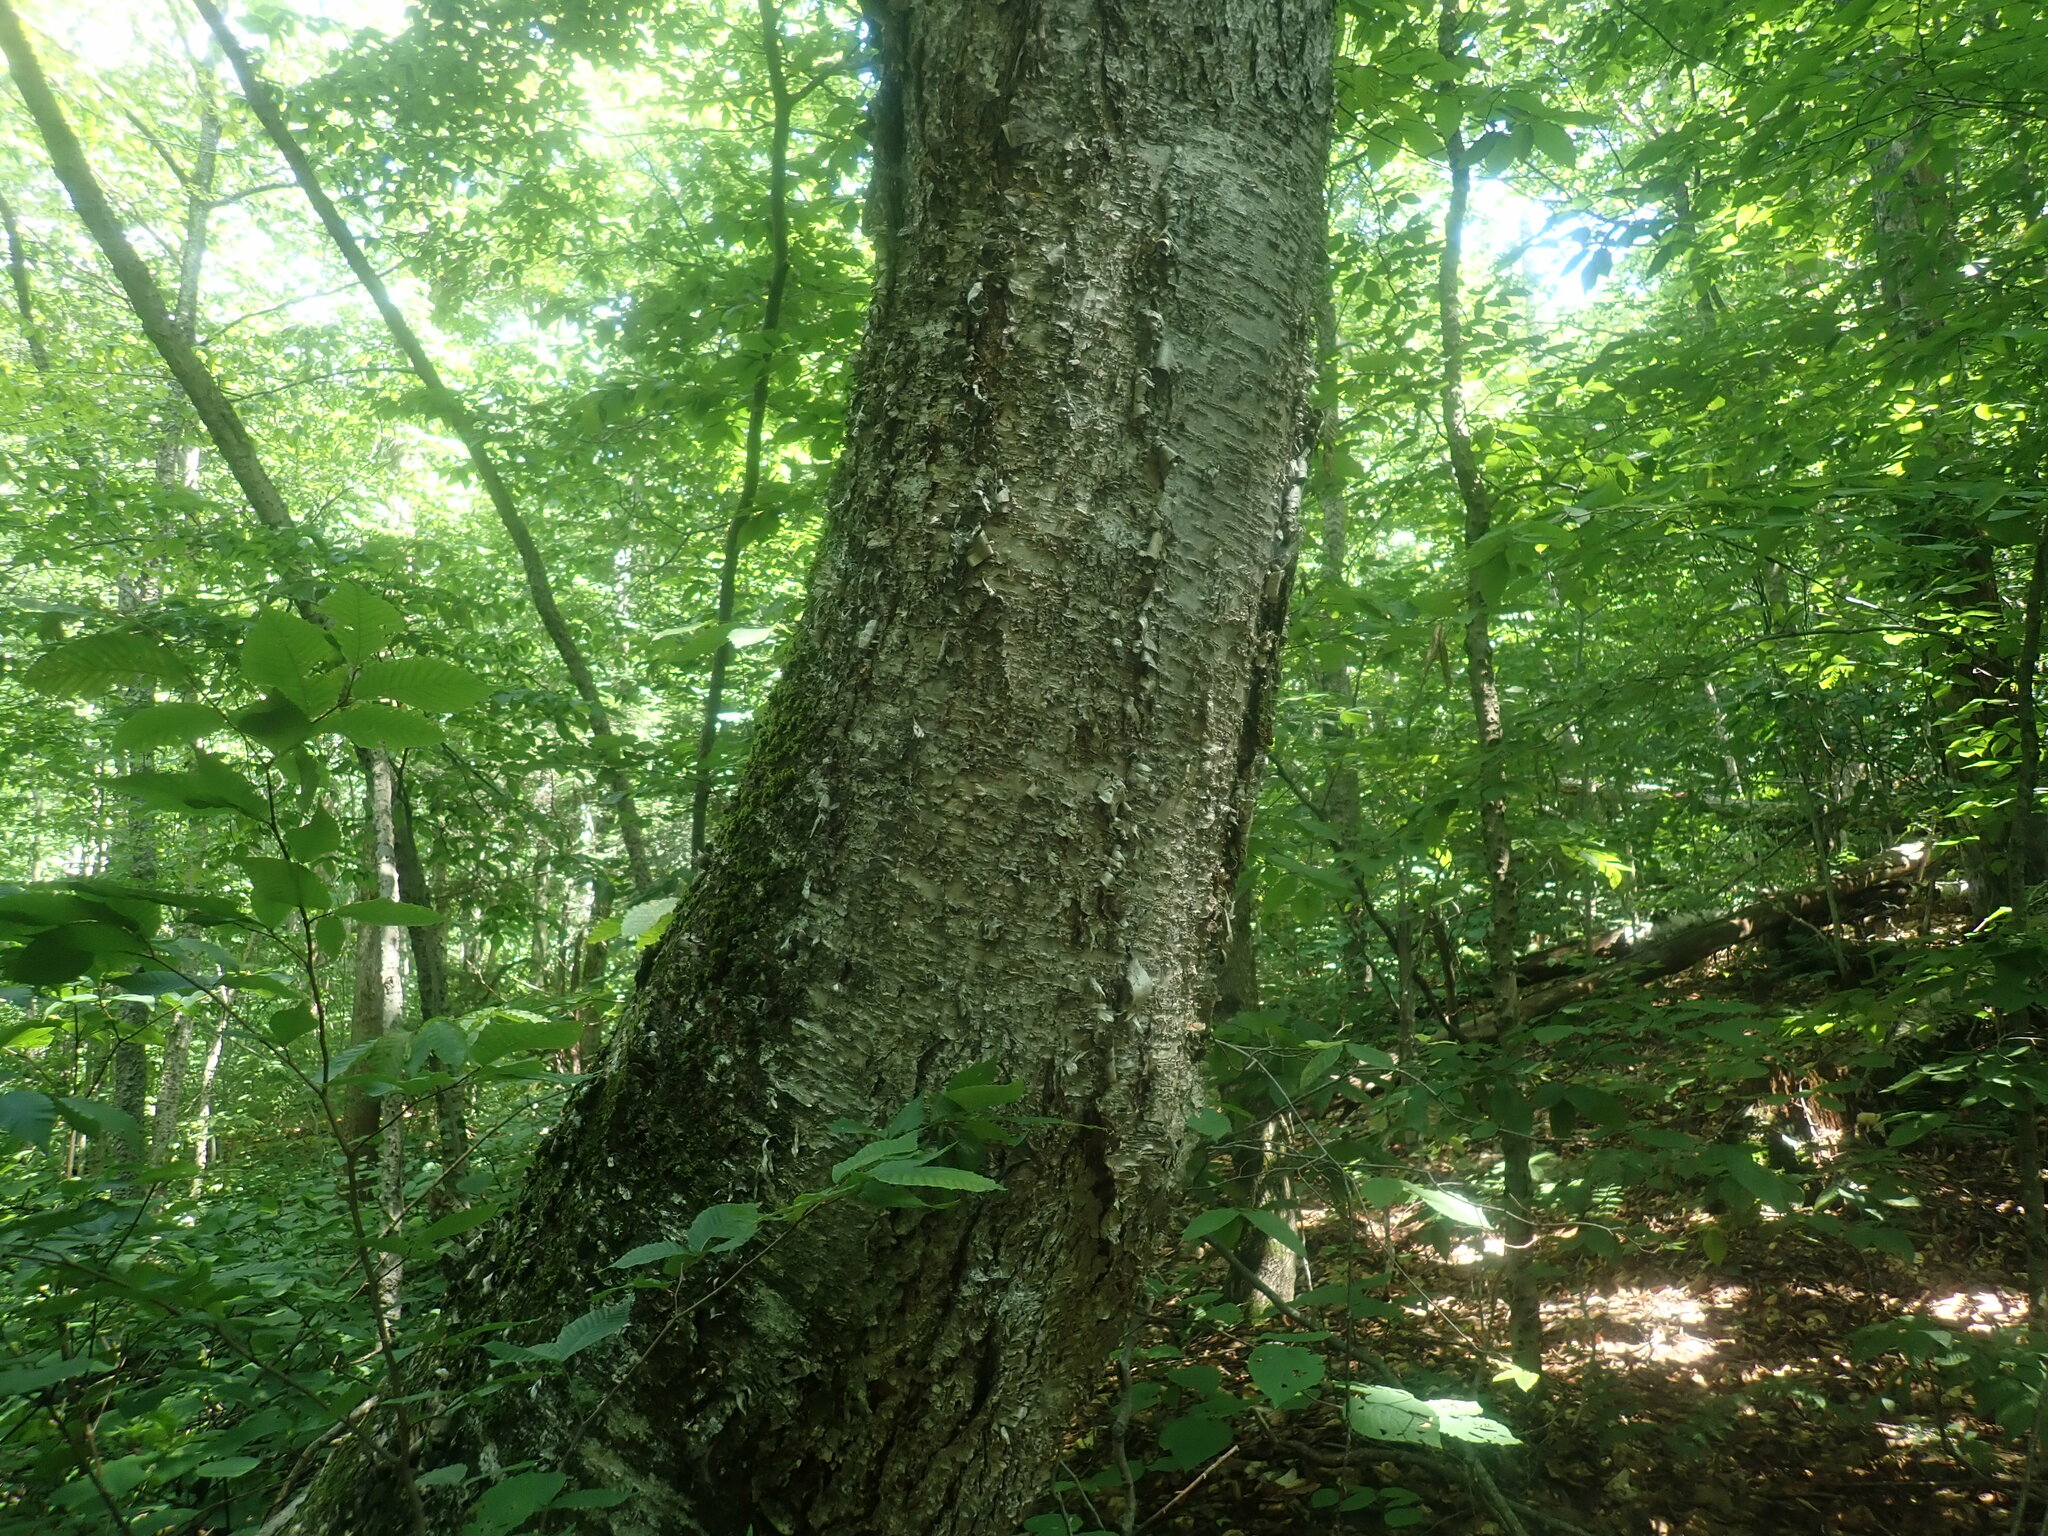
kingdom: Plantae
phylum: Tracheophyta
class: Magnoliopsida
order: Fagales
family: Betulaceae
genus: Betula
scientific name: Betula alleghaniensis
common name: Yellow birch
